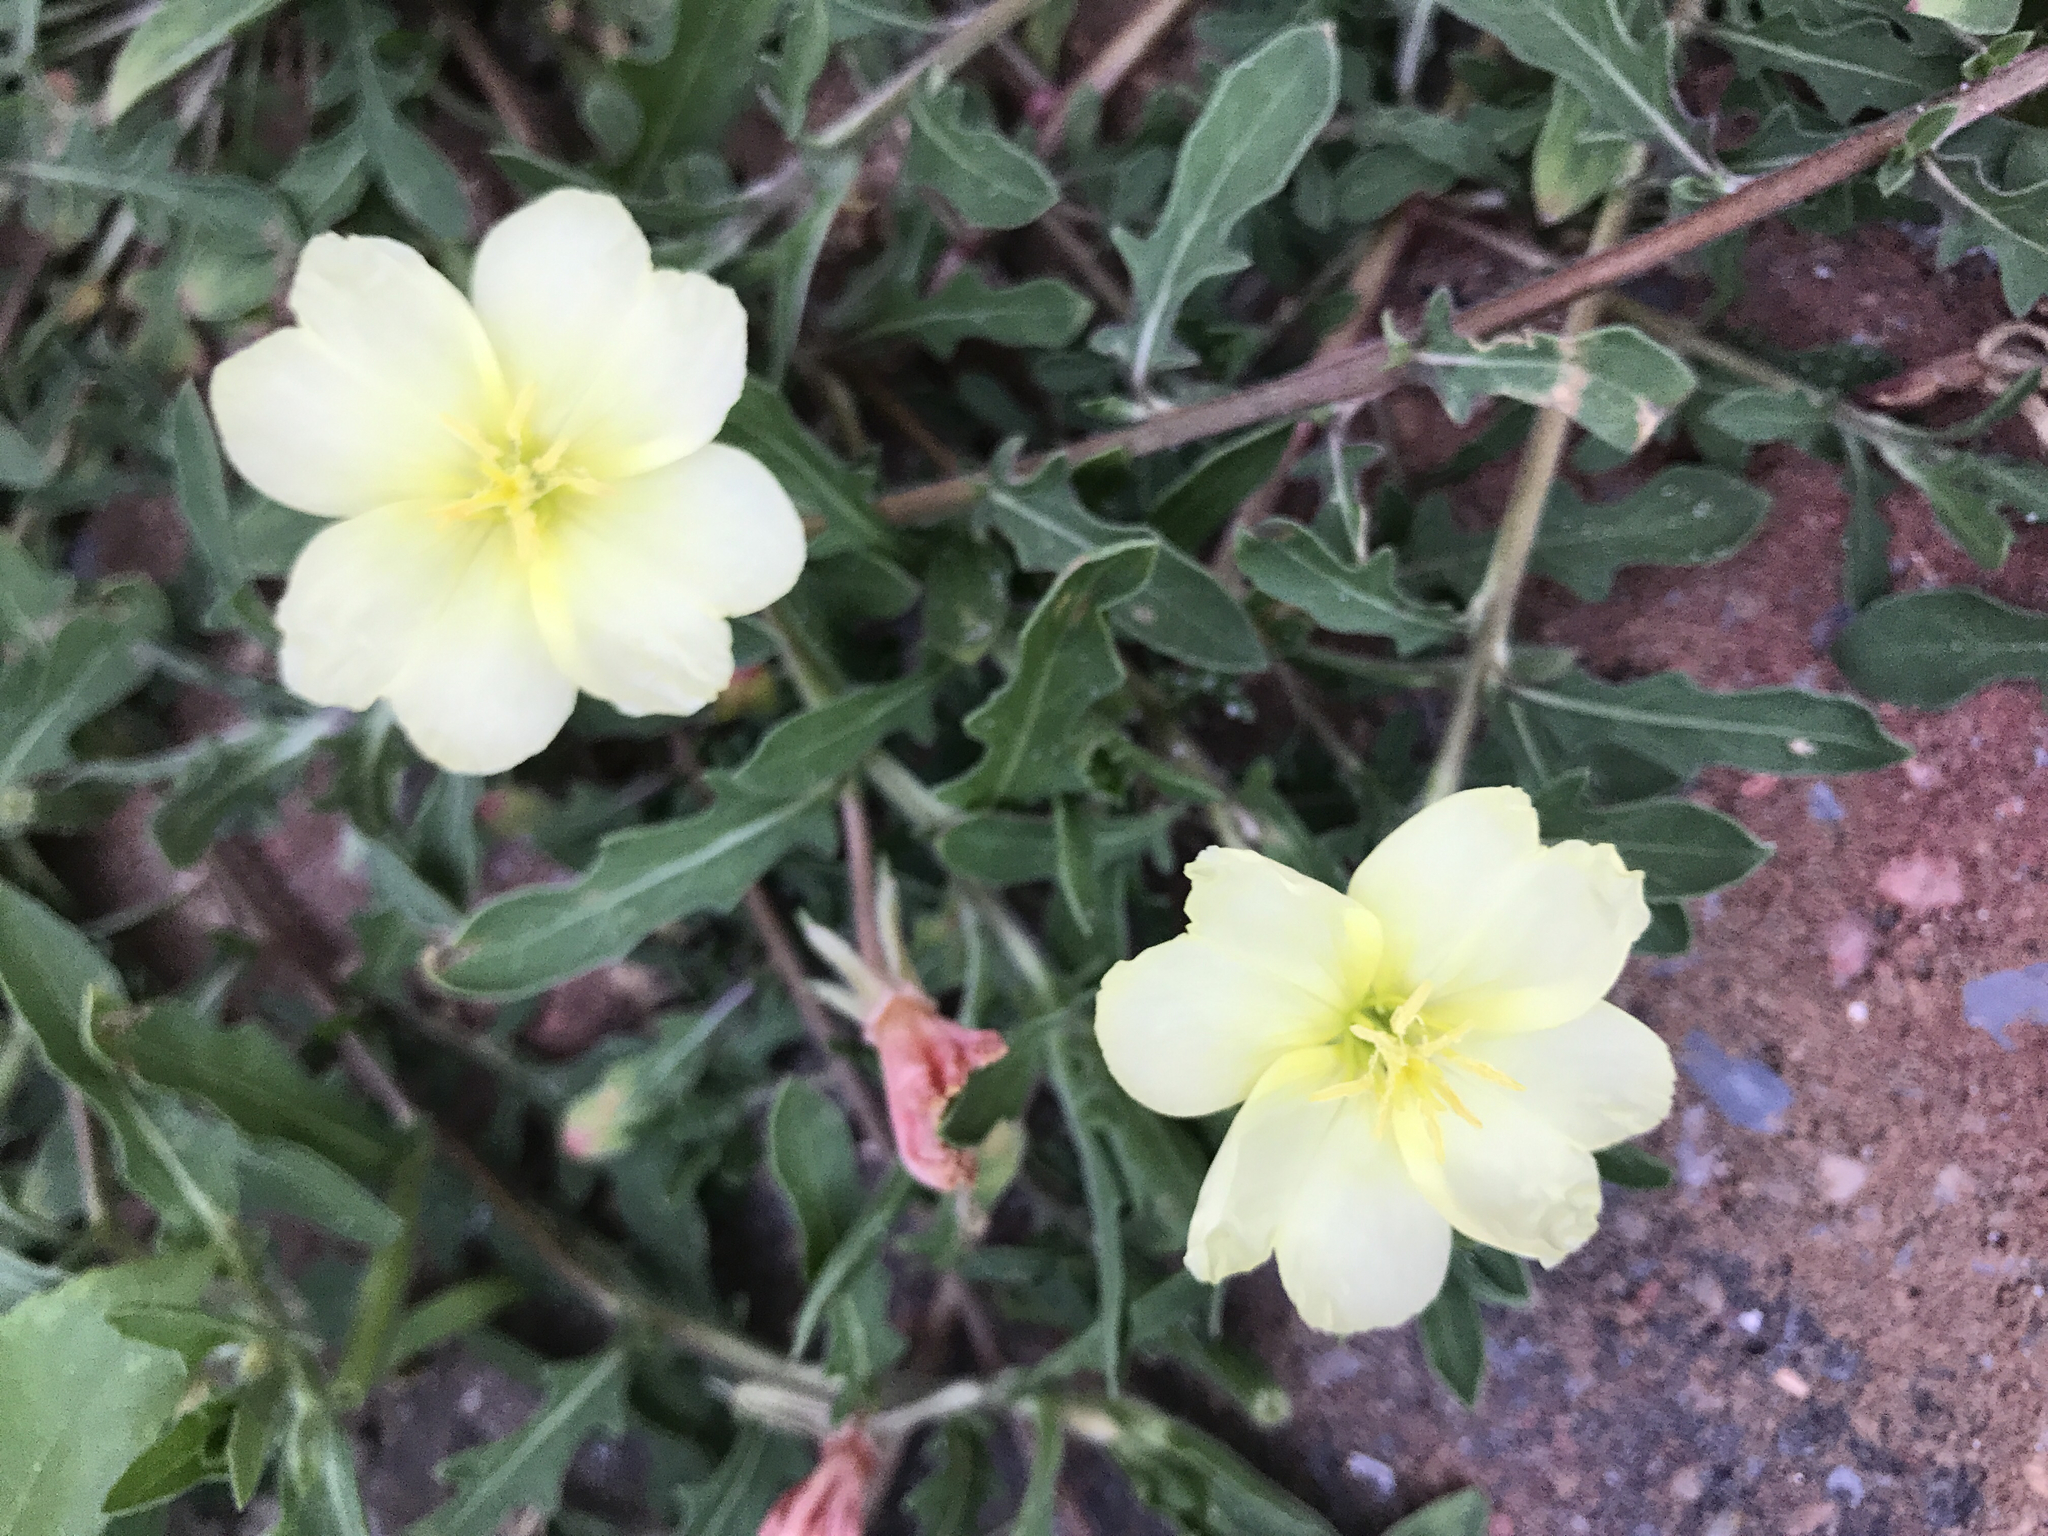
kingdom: Plantae
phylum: Tracheophyta
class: Magnoliopsida
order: Myrtales
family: Onagraceae
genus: Oenothera
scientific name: Oenothera laciniata
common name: Cut-leaved evening-primrose
